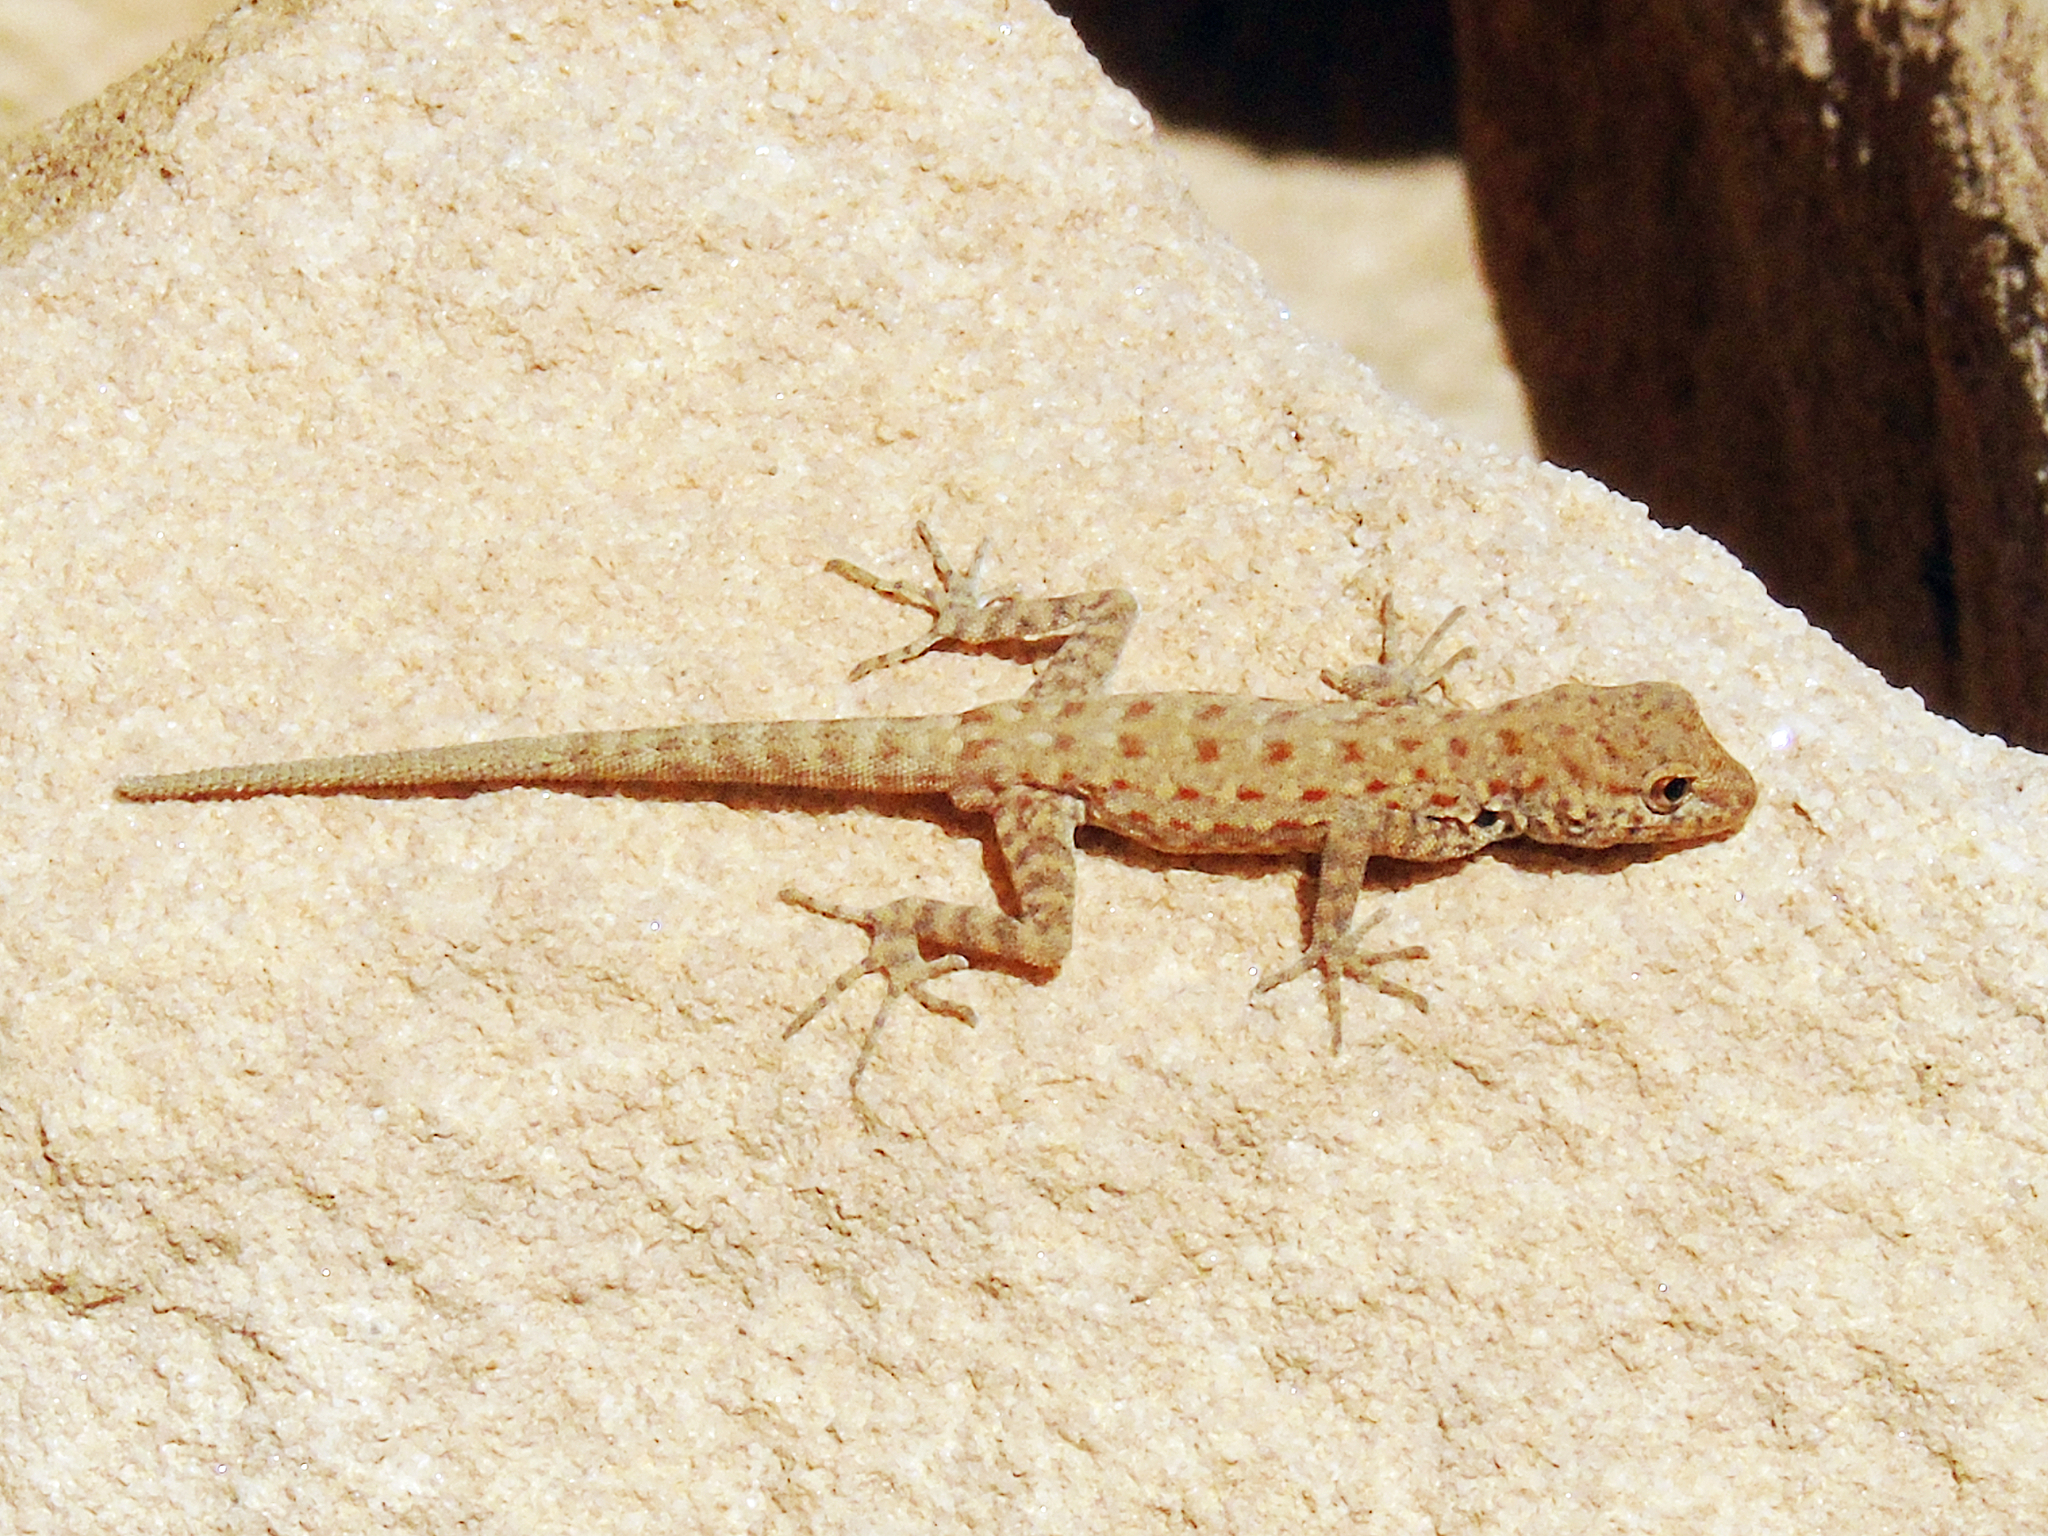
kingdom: Animalia
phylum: Chordata
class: Squamata
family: Sphaerodactylidae
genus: Pristurus
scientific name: Pristurus rupestris
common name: Blanford’s semaphore gecko
